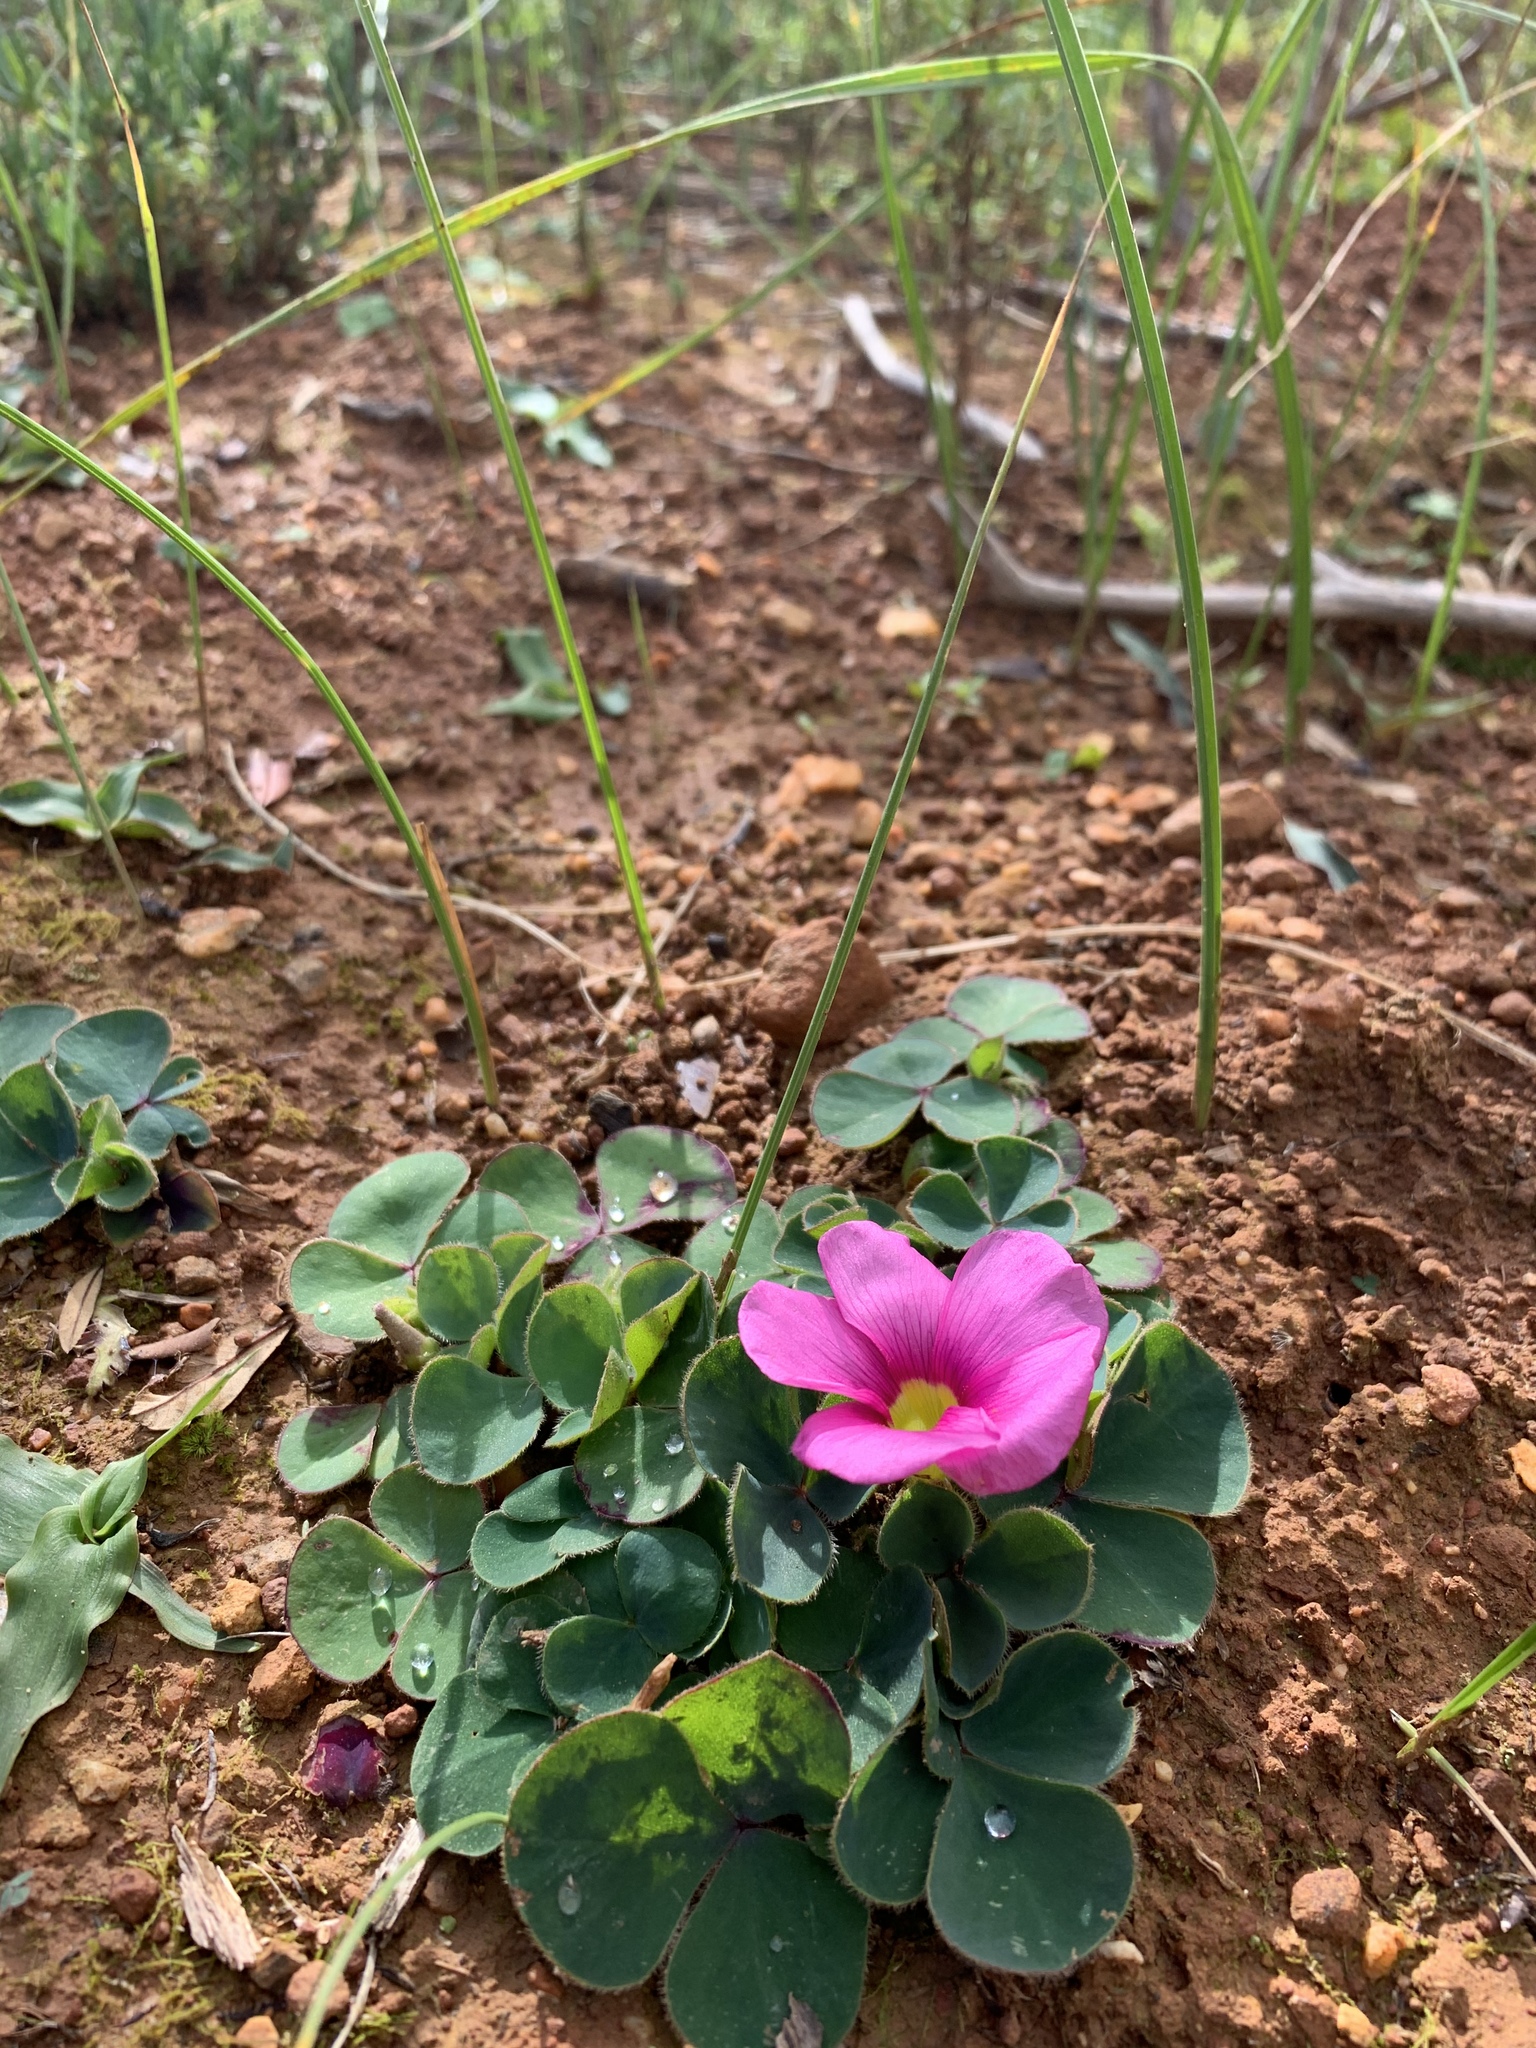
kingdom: Plantae
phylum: Tracheophyta
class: Magnoliopsida
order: Oxalidales
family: Oxalidaceae
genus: Oxalis
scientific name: Oxalis purpurea
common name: Purple woodsorrel
